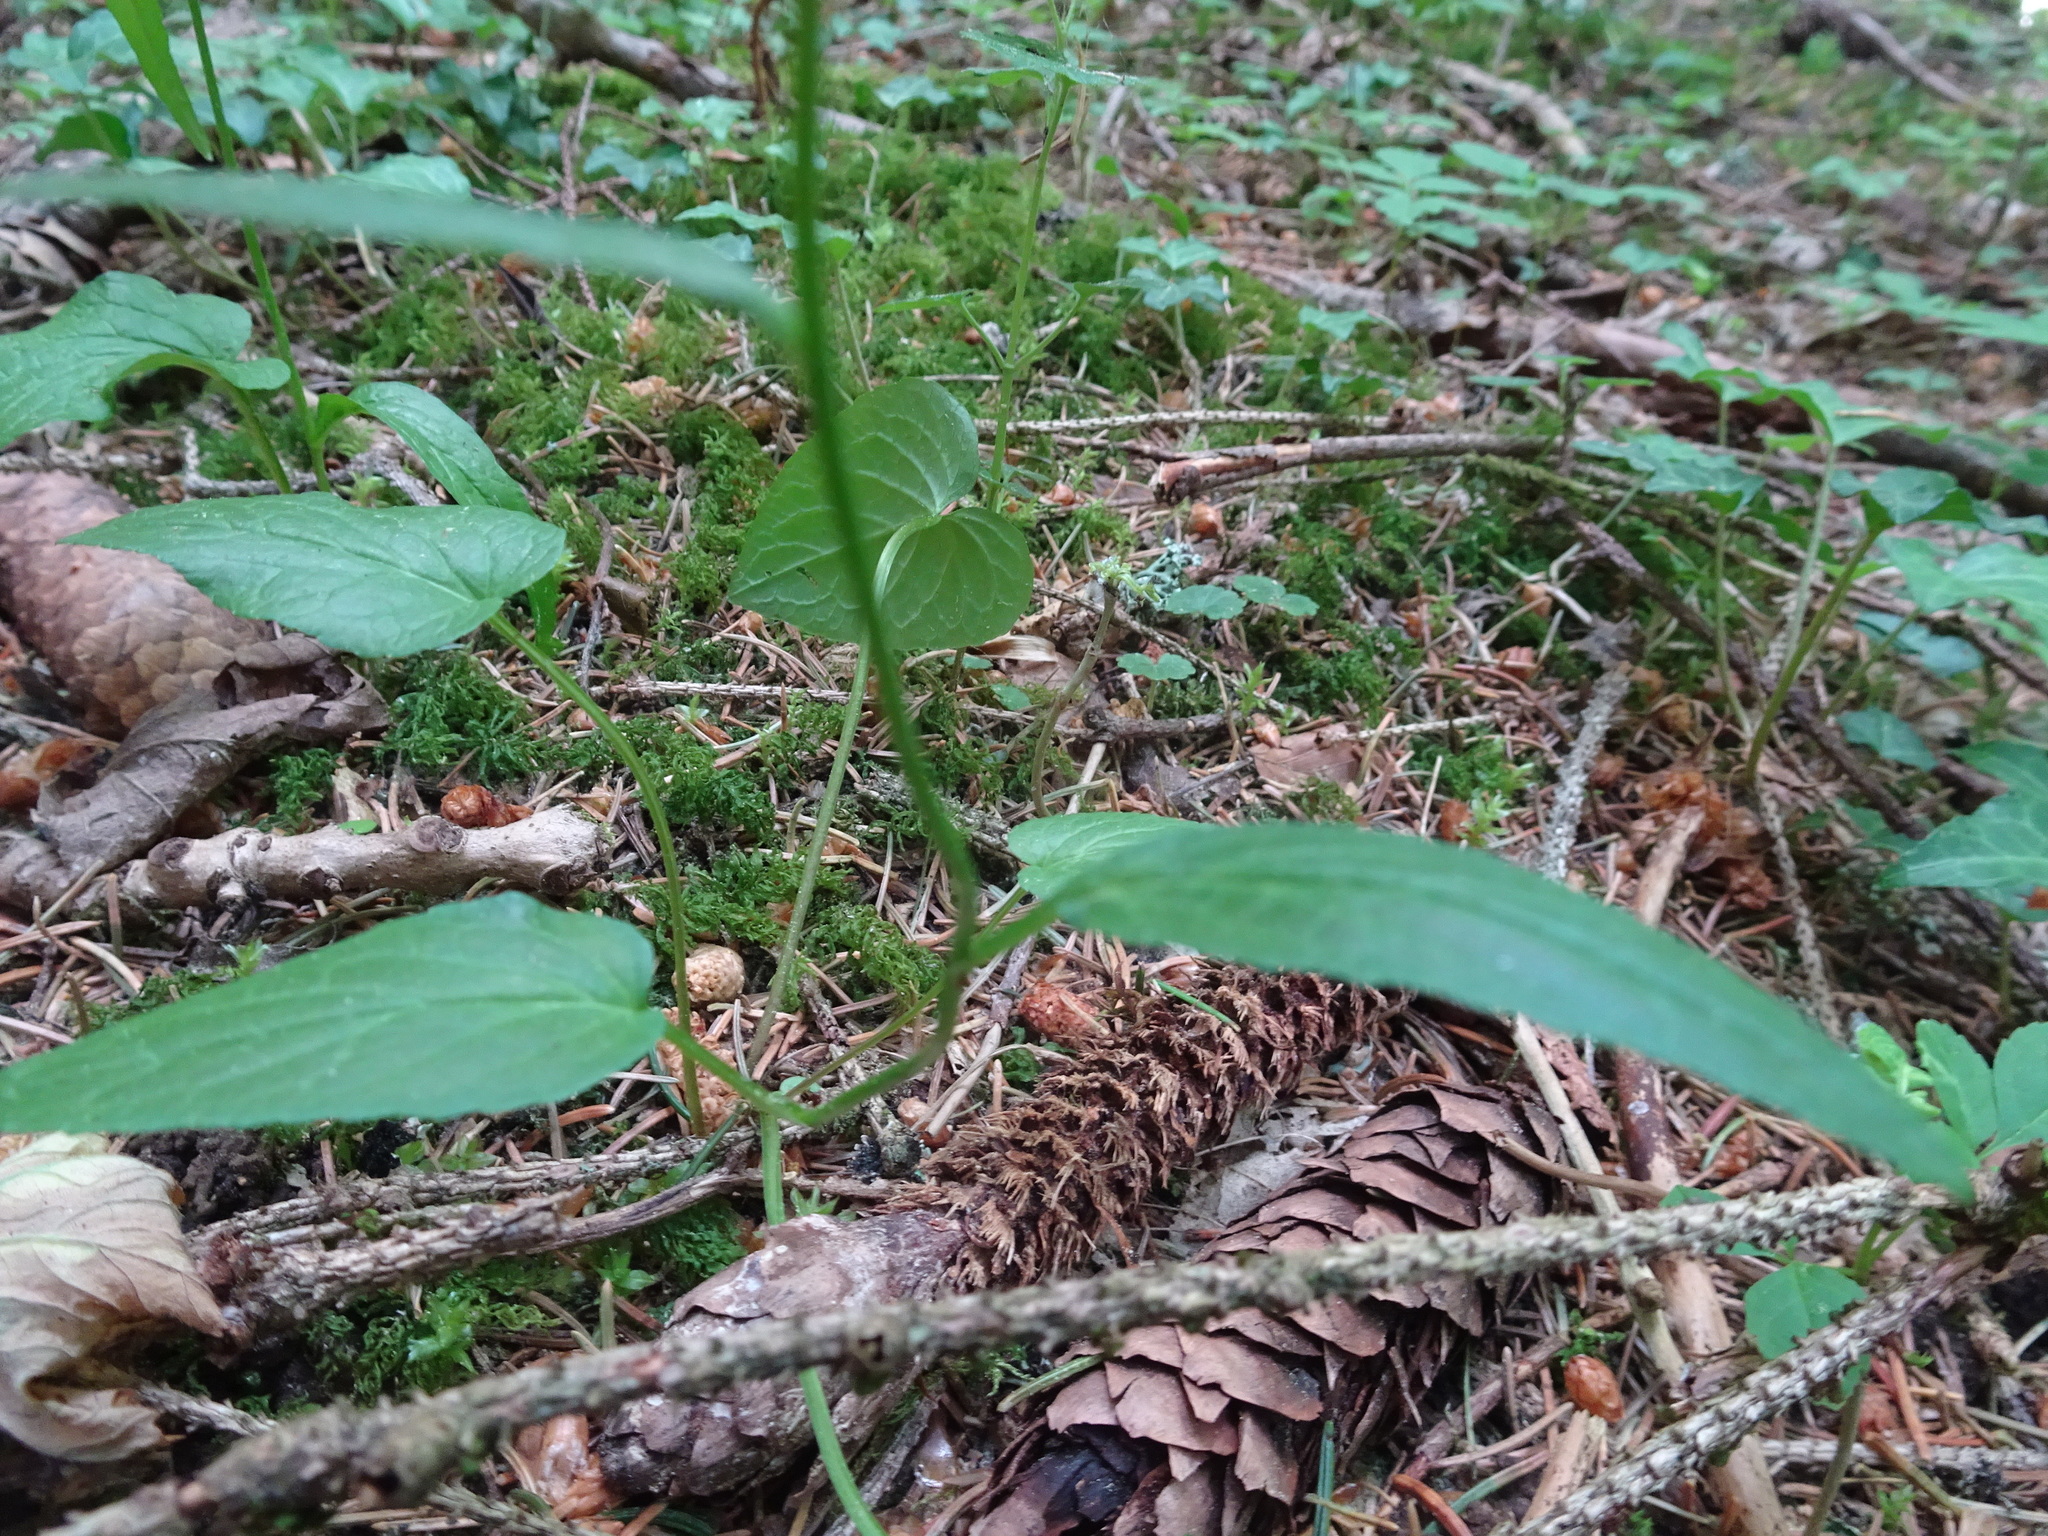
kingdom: Plantae
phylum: Tracheophyta
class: Magnoliopsida
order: Asterales
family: Campanulaceae
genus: Phyteuma
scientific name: Phyteuma orbiculare
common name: Round-headed rampion
